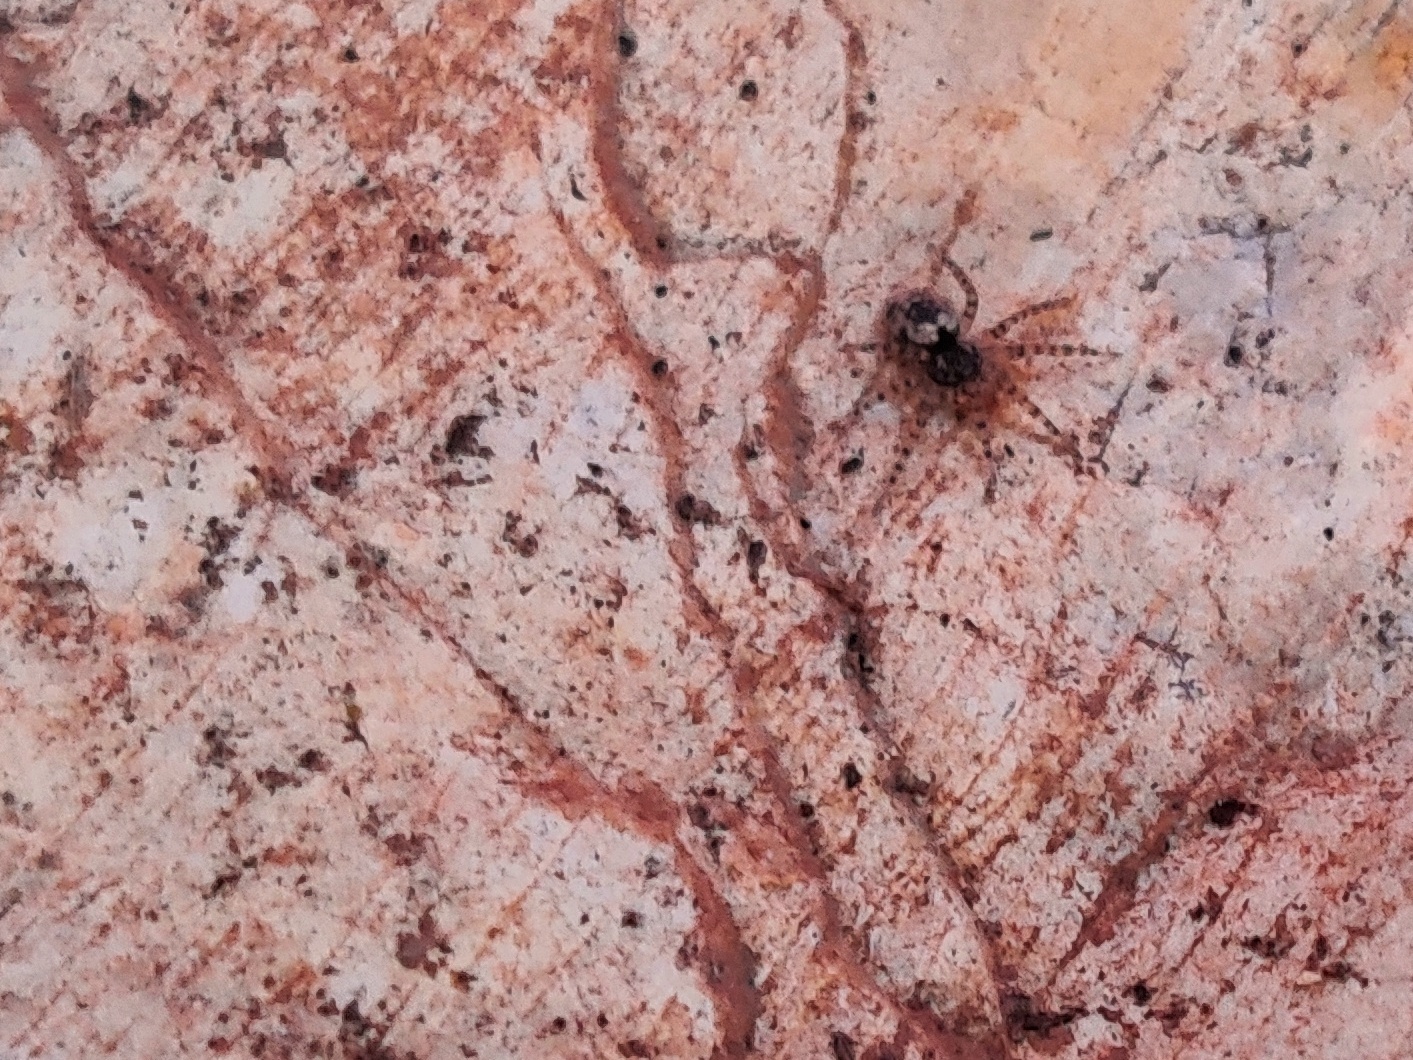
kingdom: Animalia
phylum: Arthropoda
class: Arachnida
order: Araneae
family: Oecobiidae
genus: Oecobius
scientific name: Oecobius maculatus
